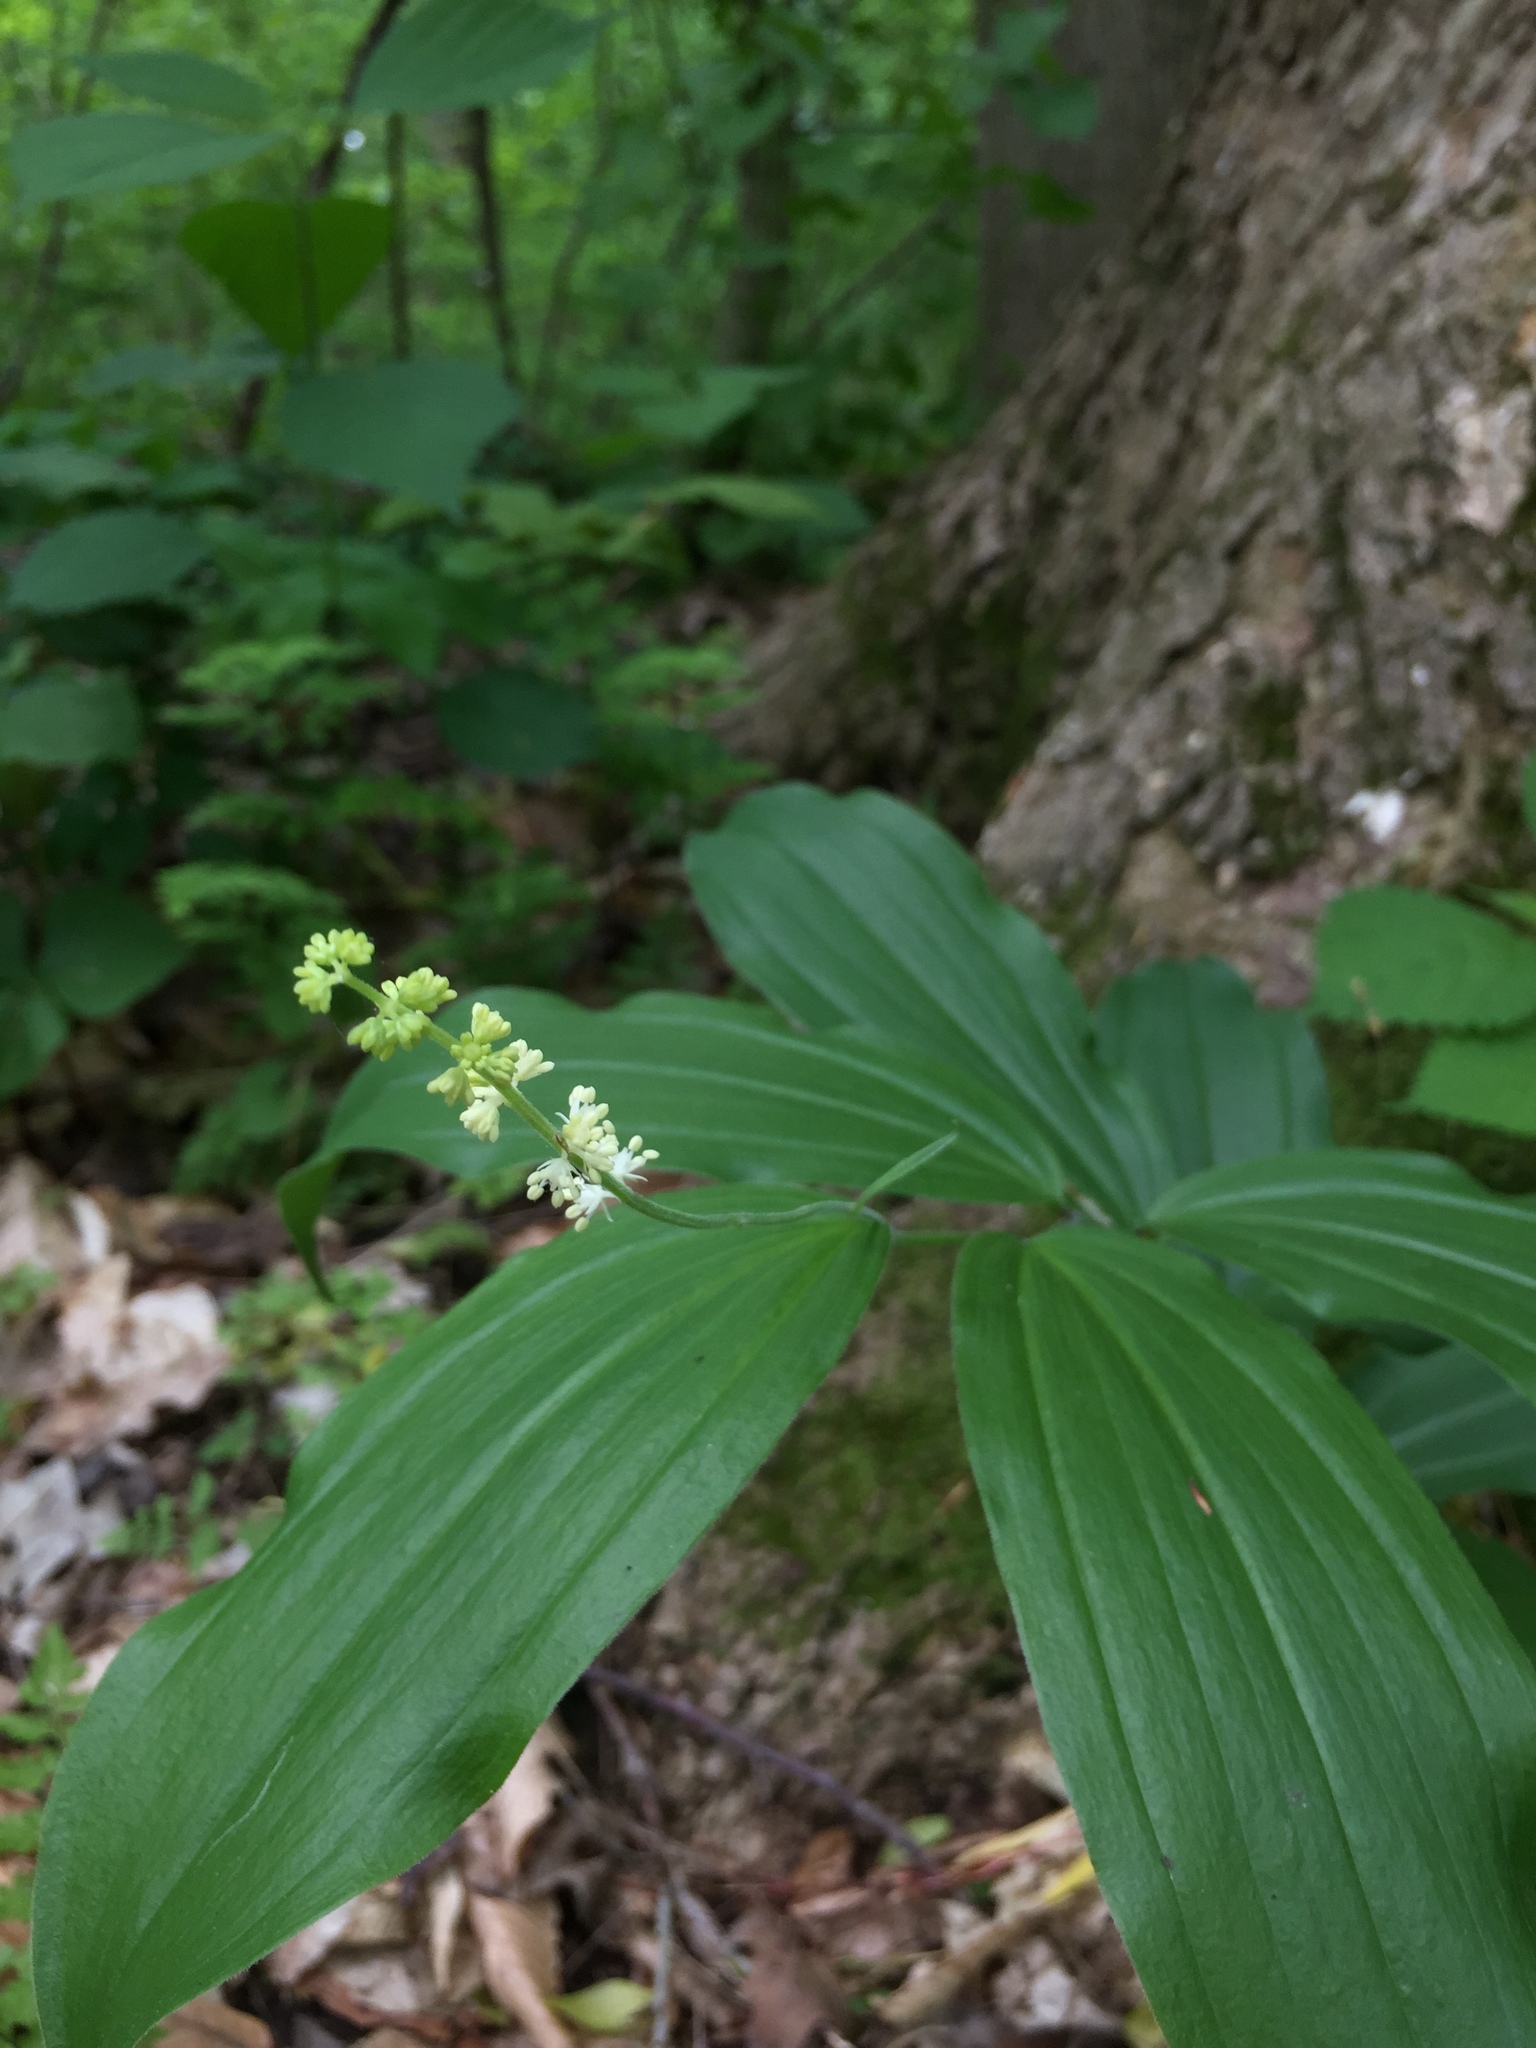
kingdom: Plantae
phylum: Tracheophyta
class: Liliopsida
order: Asparagales
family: Asparagaceae
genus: Maianthemum
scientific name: Maianthemum racemosum
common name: False spikenard
